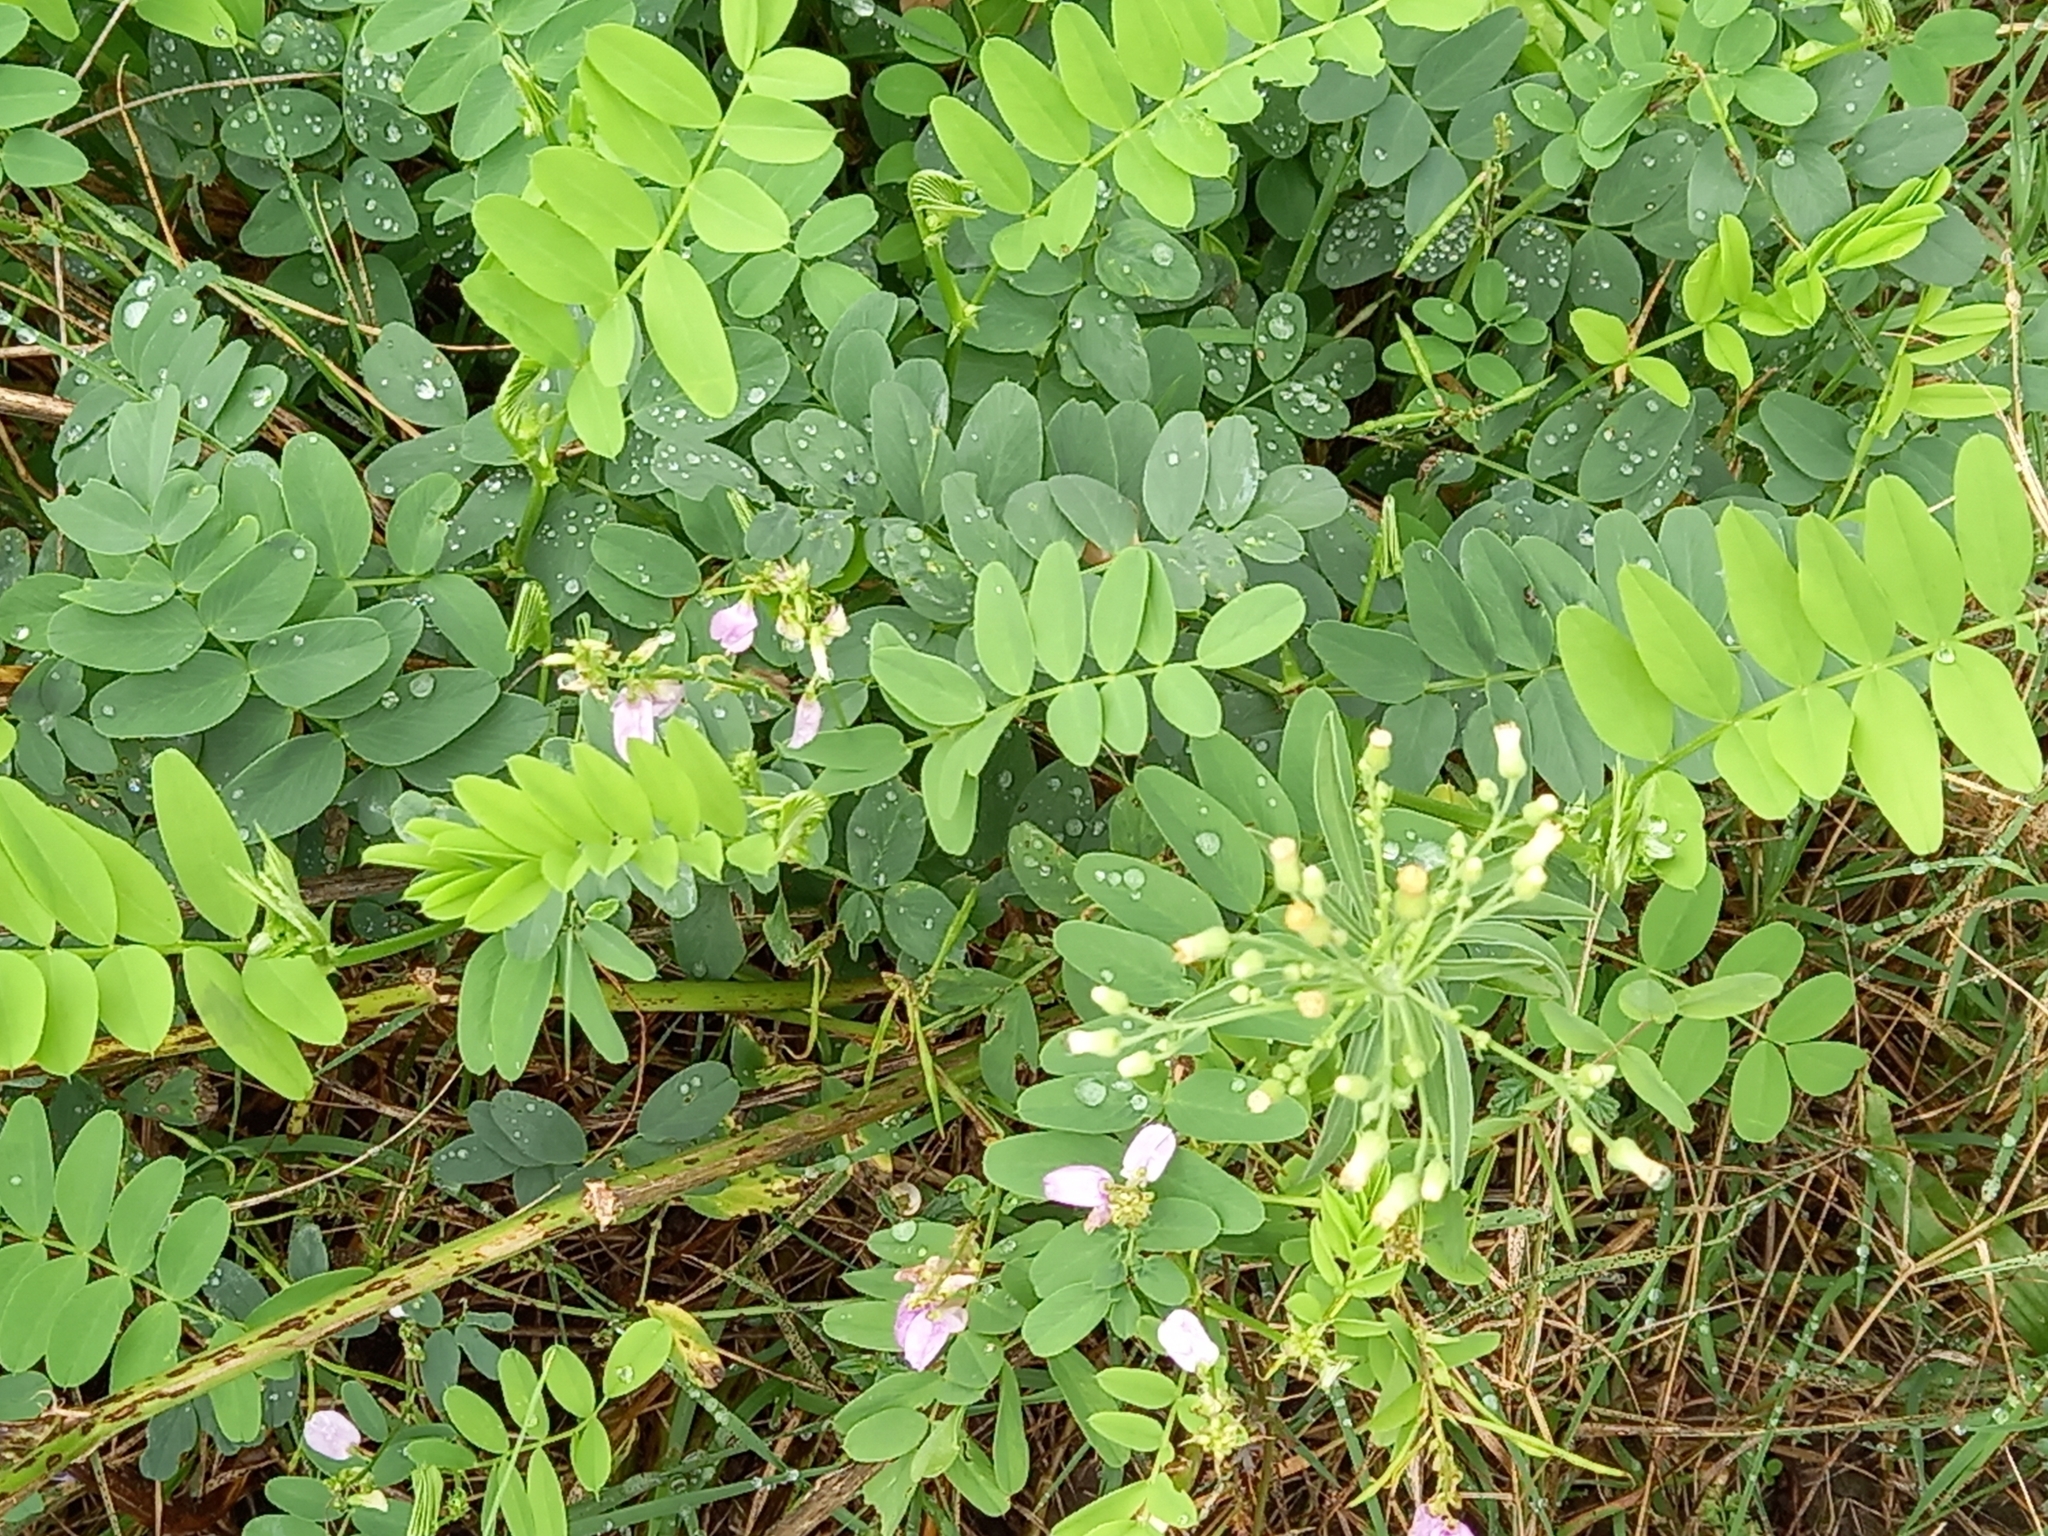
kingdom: Plantae
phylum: Tracheophyta
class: Magnoliopsida
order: Fabales
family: Fabaceae
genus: Coronilla
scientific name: Coronilla varia
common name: Crownvetch
